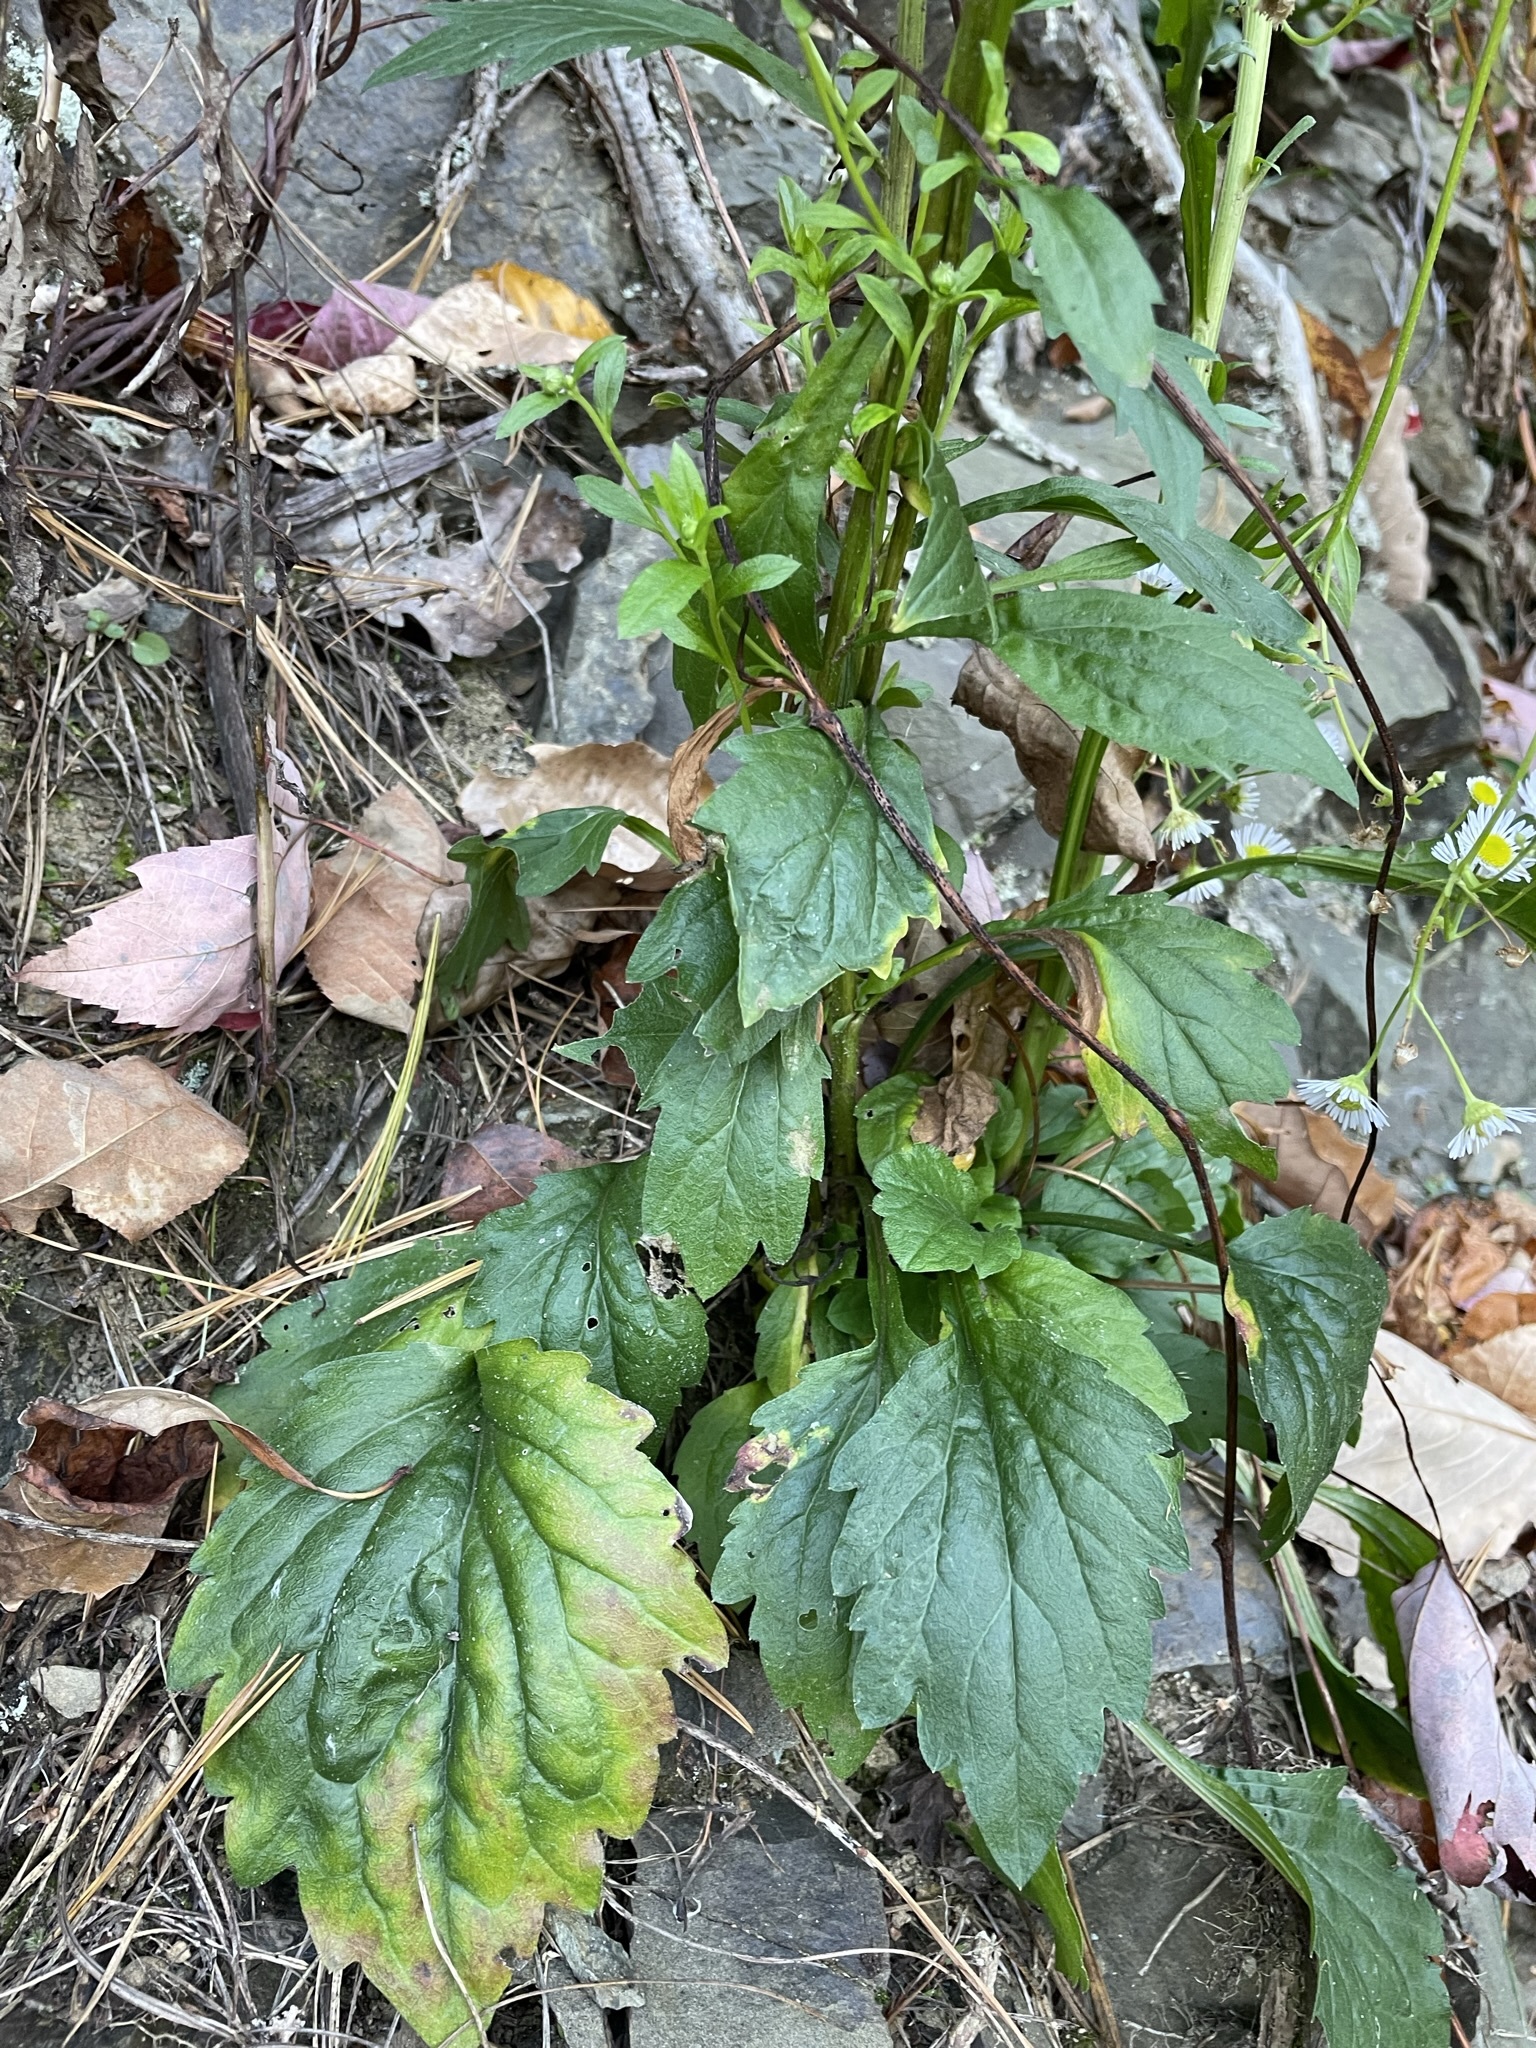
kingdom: Plantae
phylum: Tracheophyta
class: Magnoliopsida
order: Asterales
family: Asteraceae
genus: Erigeron
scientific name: Erigeron annuus
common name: Tall fleabane
